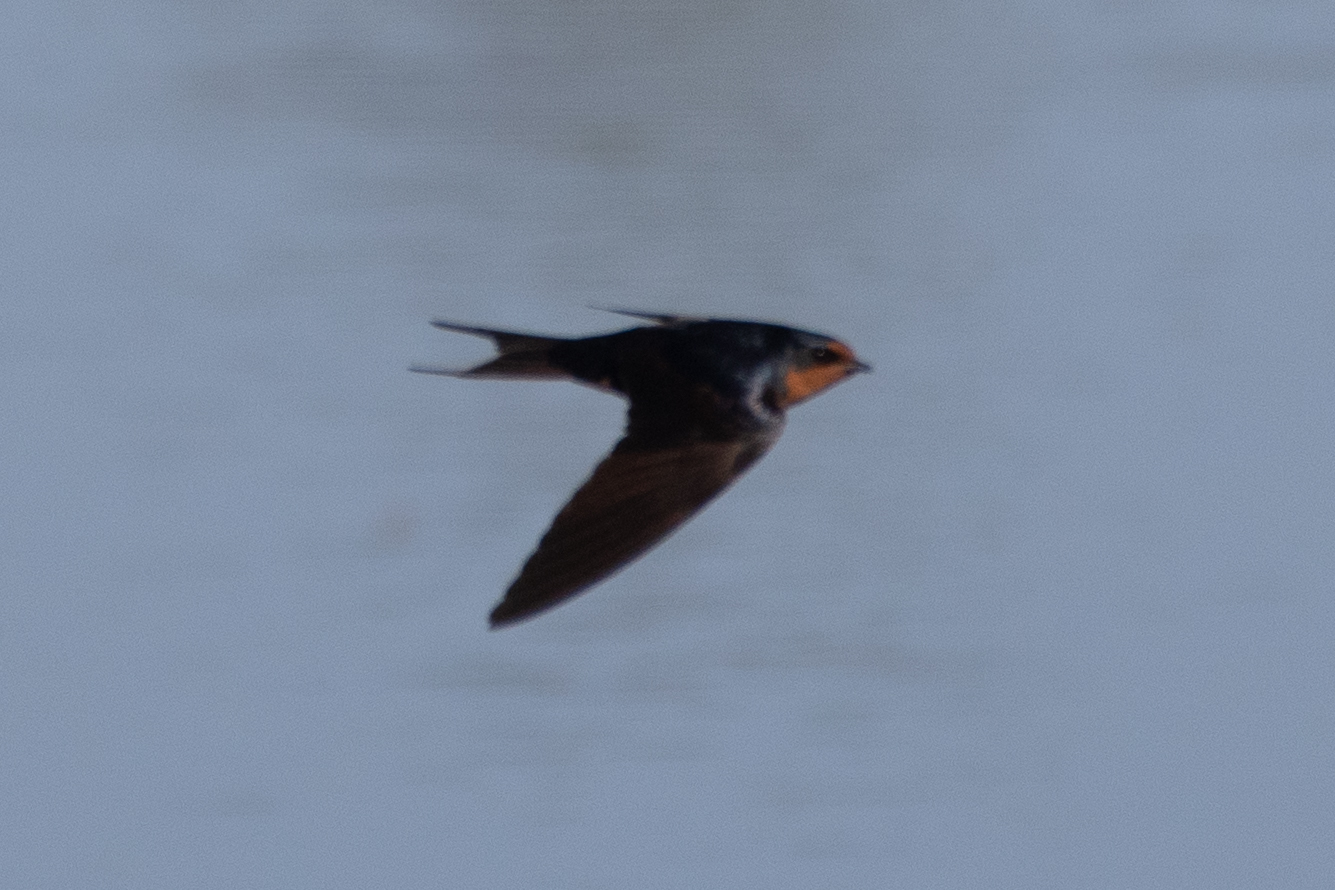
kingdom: Animalia
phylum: Chordata
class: Aves
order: Passeriformes
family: Hirundinidae
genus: Hirundo
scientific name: Hirundo rustica
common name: Barn swallow
